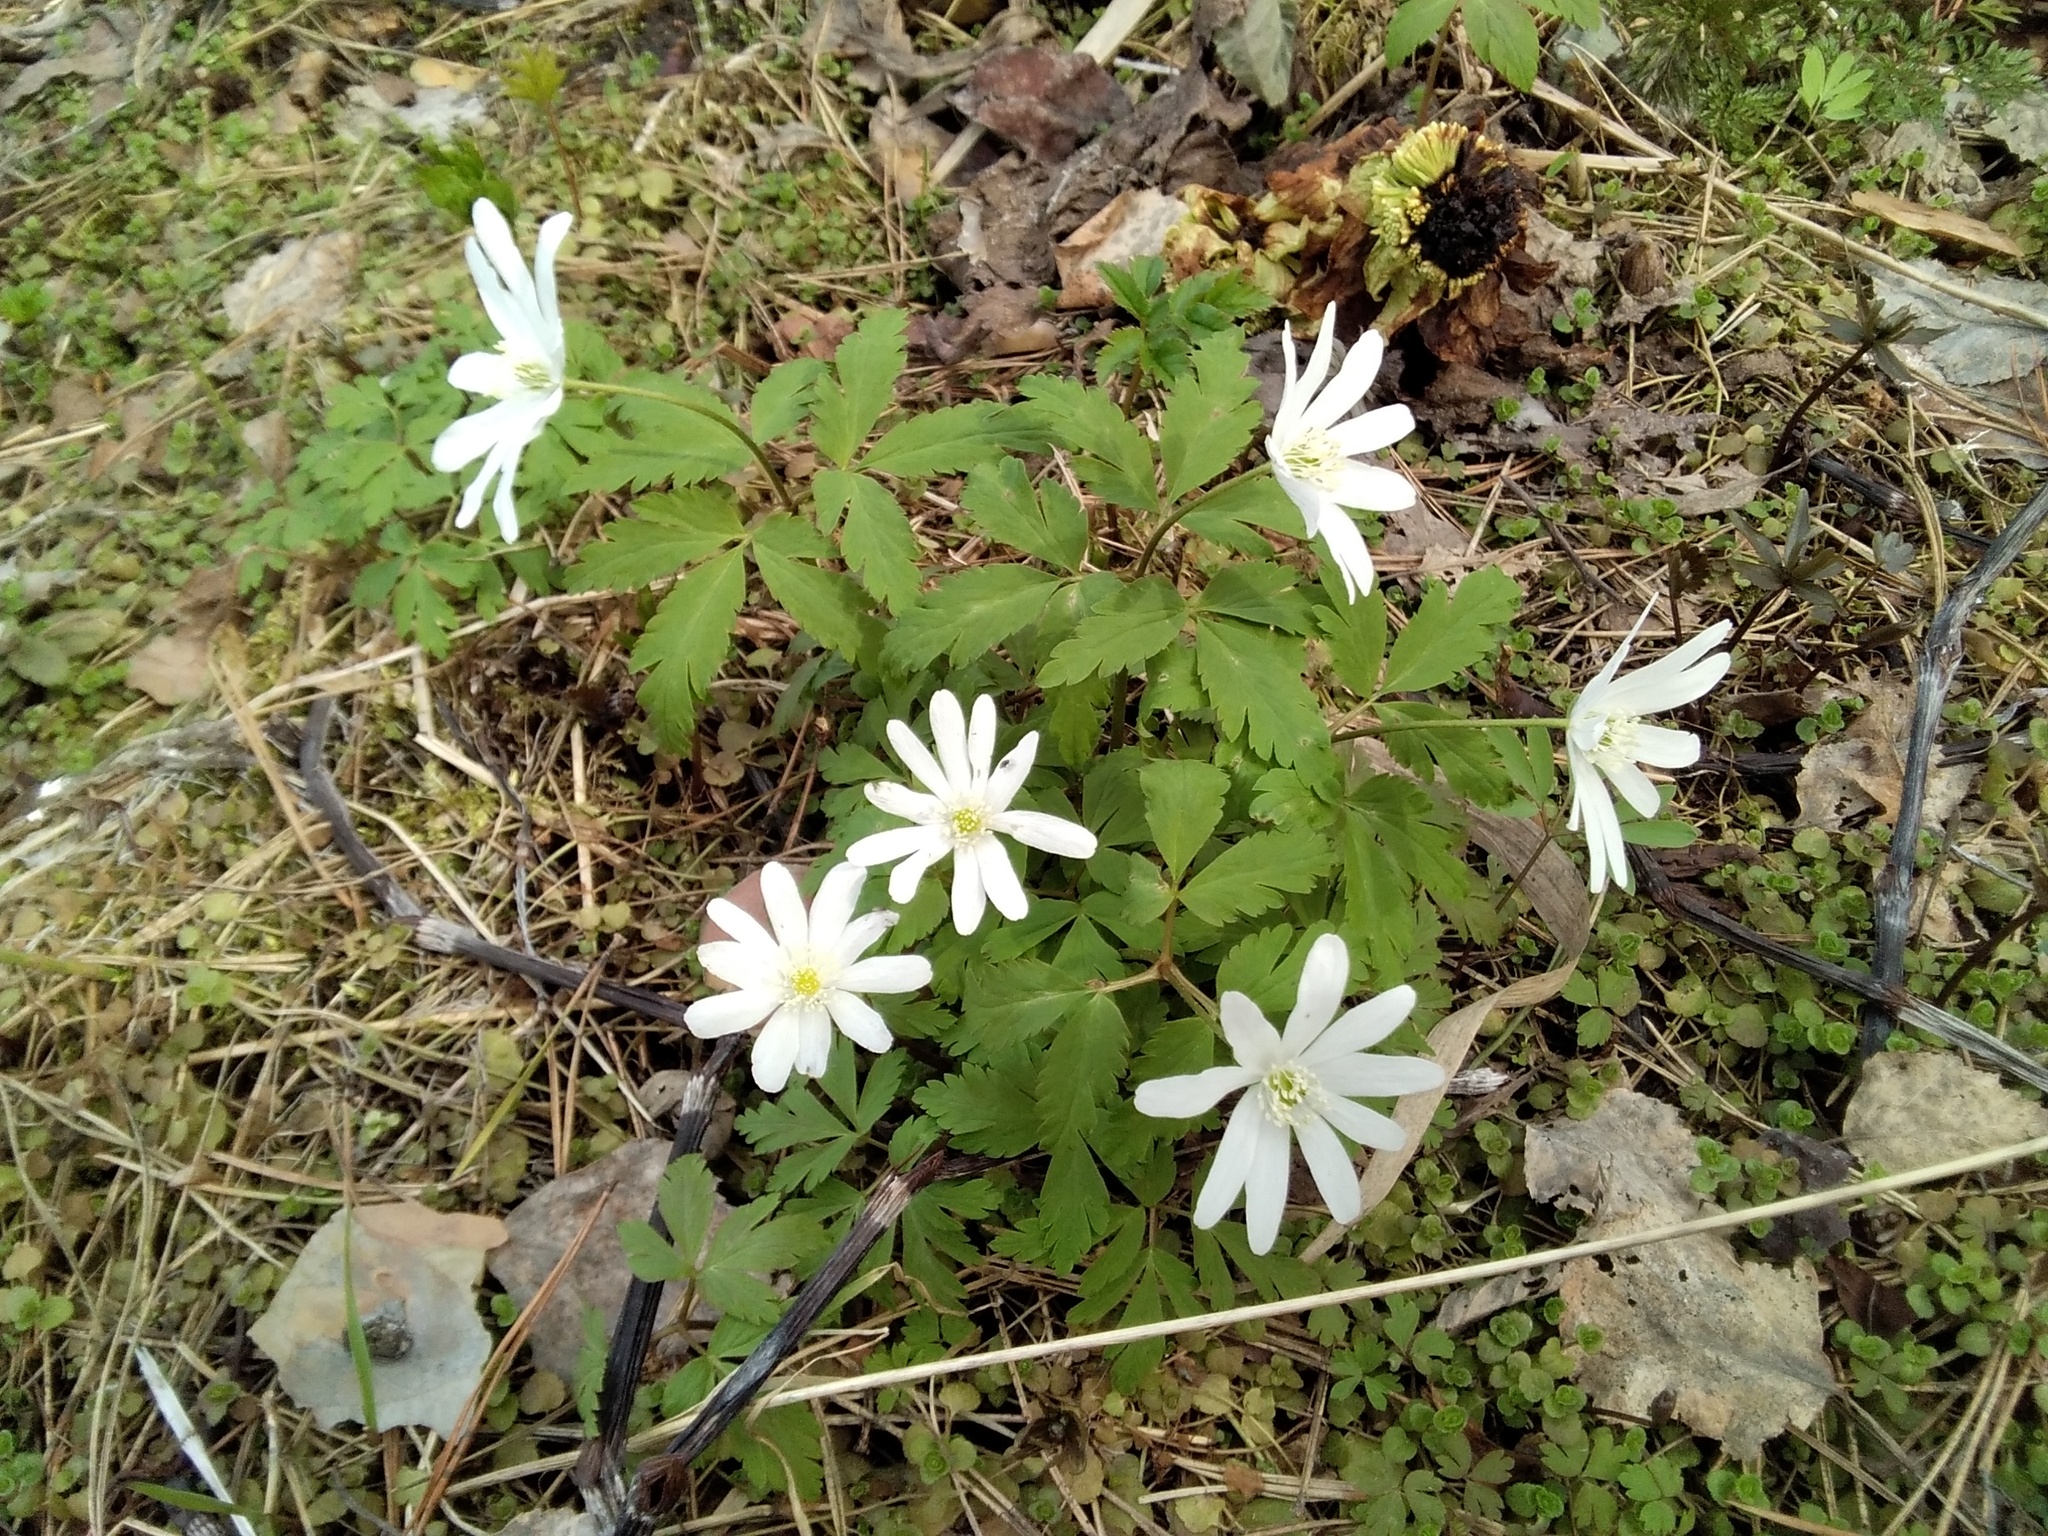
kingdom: Plantae
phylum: Tracheophyta
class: Magnoliopsida
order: Ranunculales
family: Ranunculaceae
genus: Anemone
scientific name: Anemone altaica
